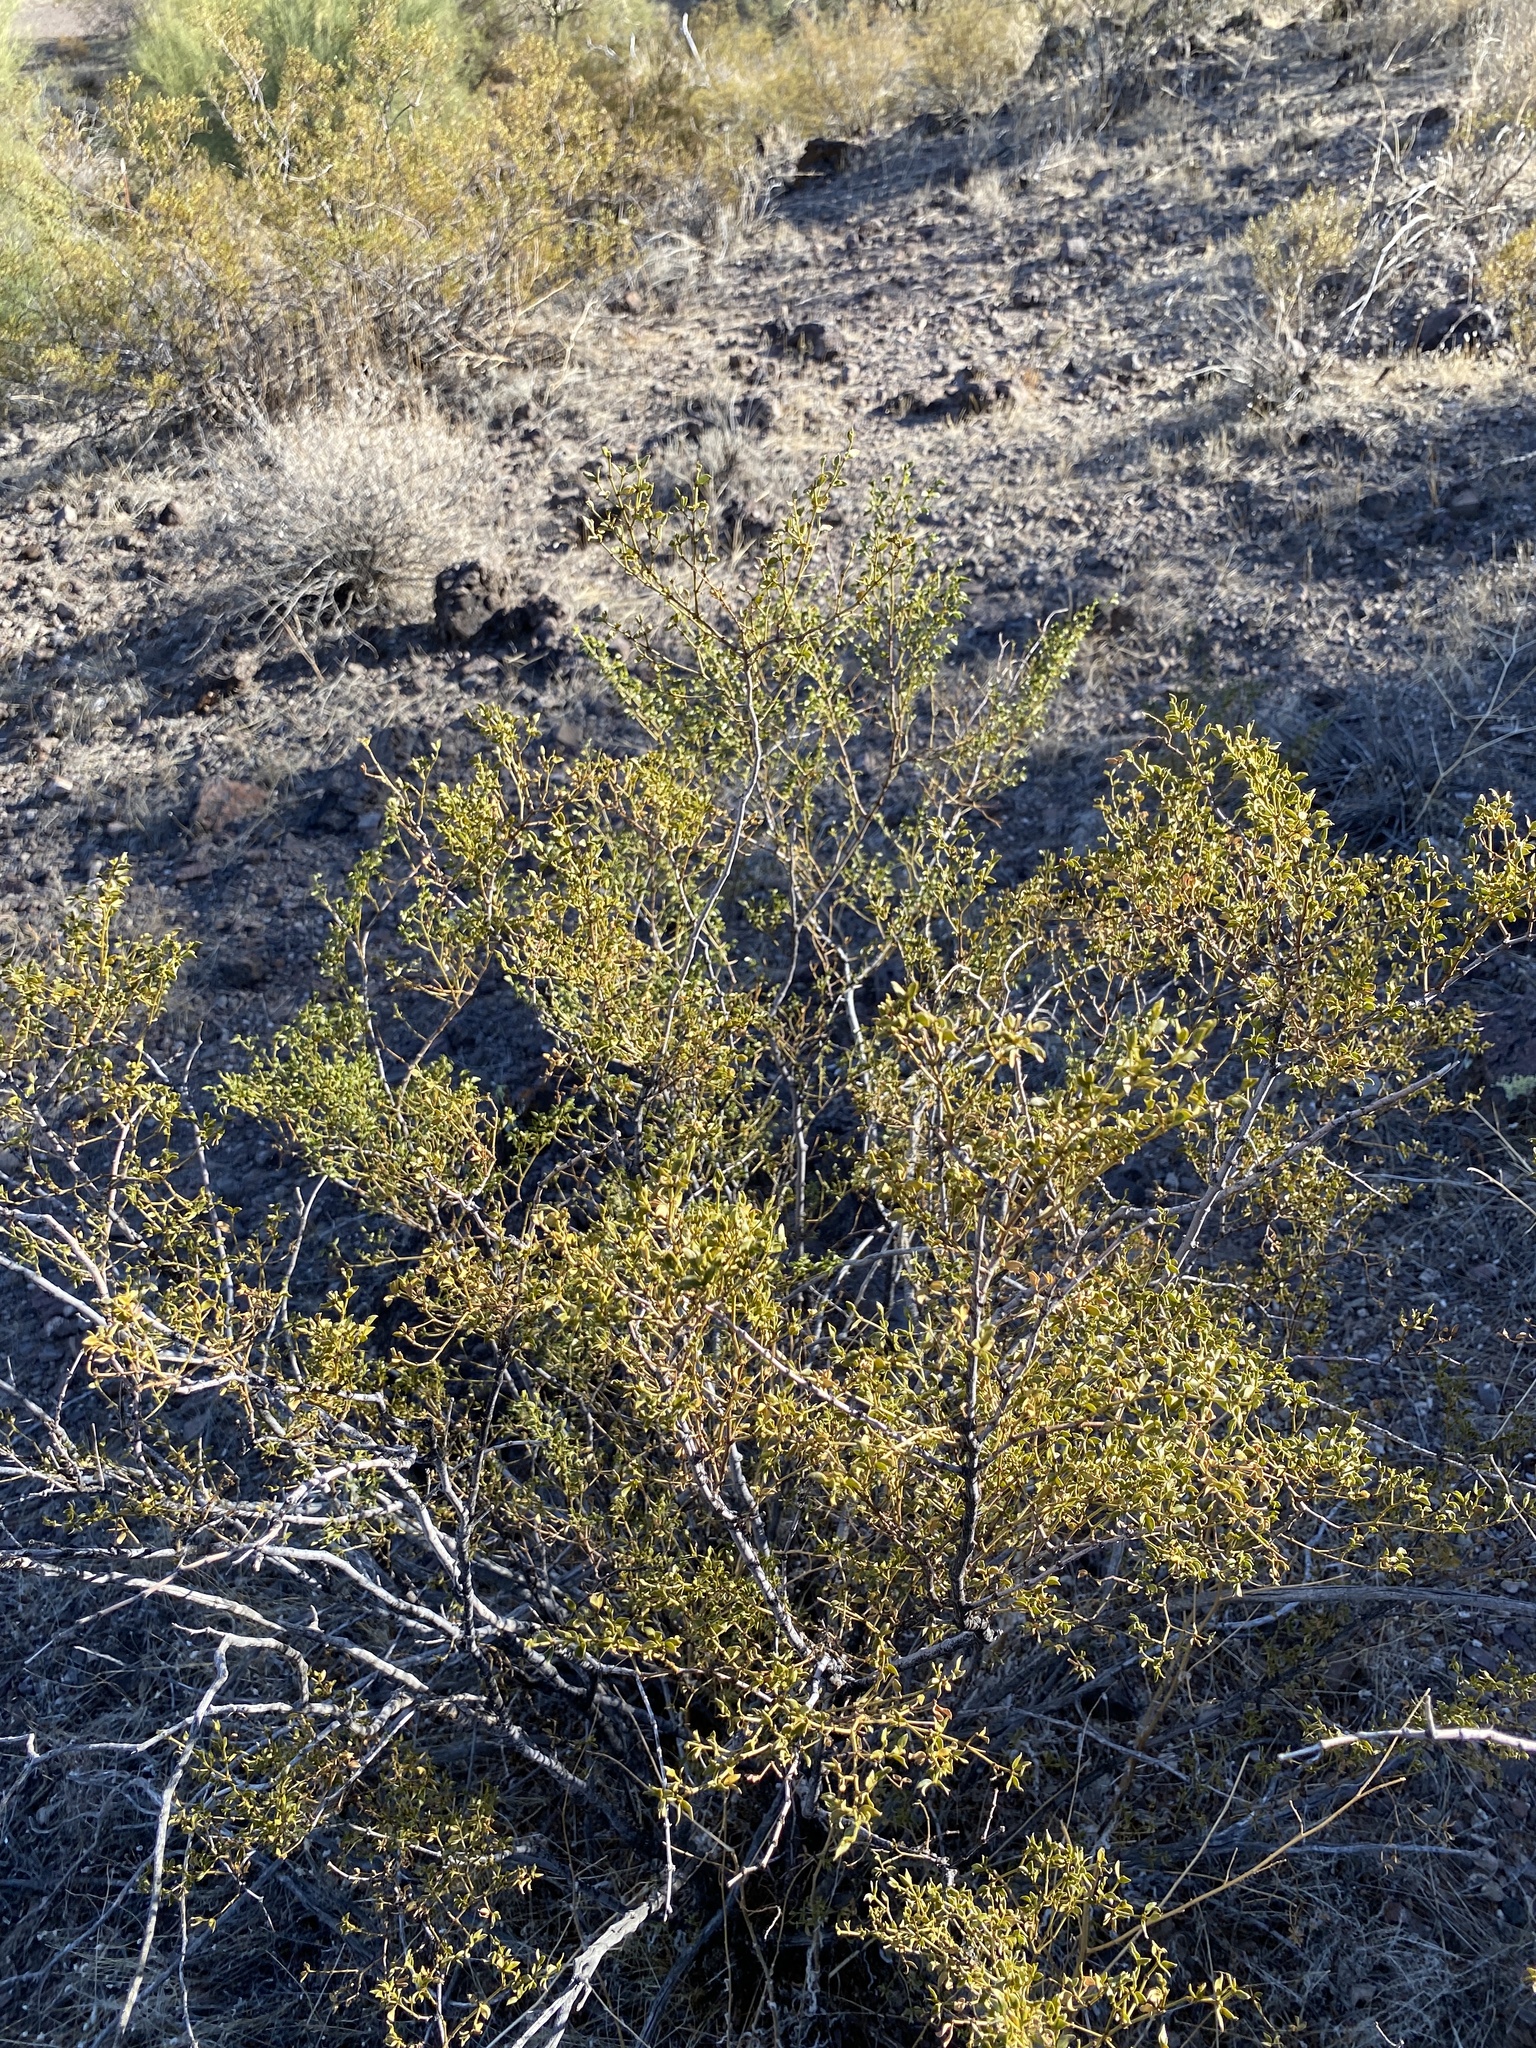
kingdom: Plantae
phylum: Tracheophyta
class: Magnoliopsida
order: Zygophyllales
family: Zygophyllaceae
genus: Larrea
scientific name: Larrea tridentata
